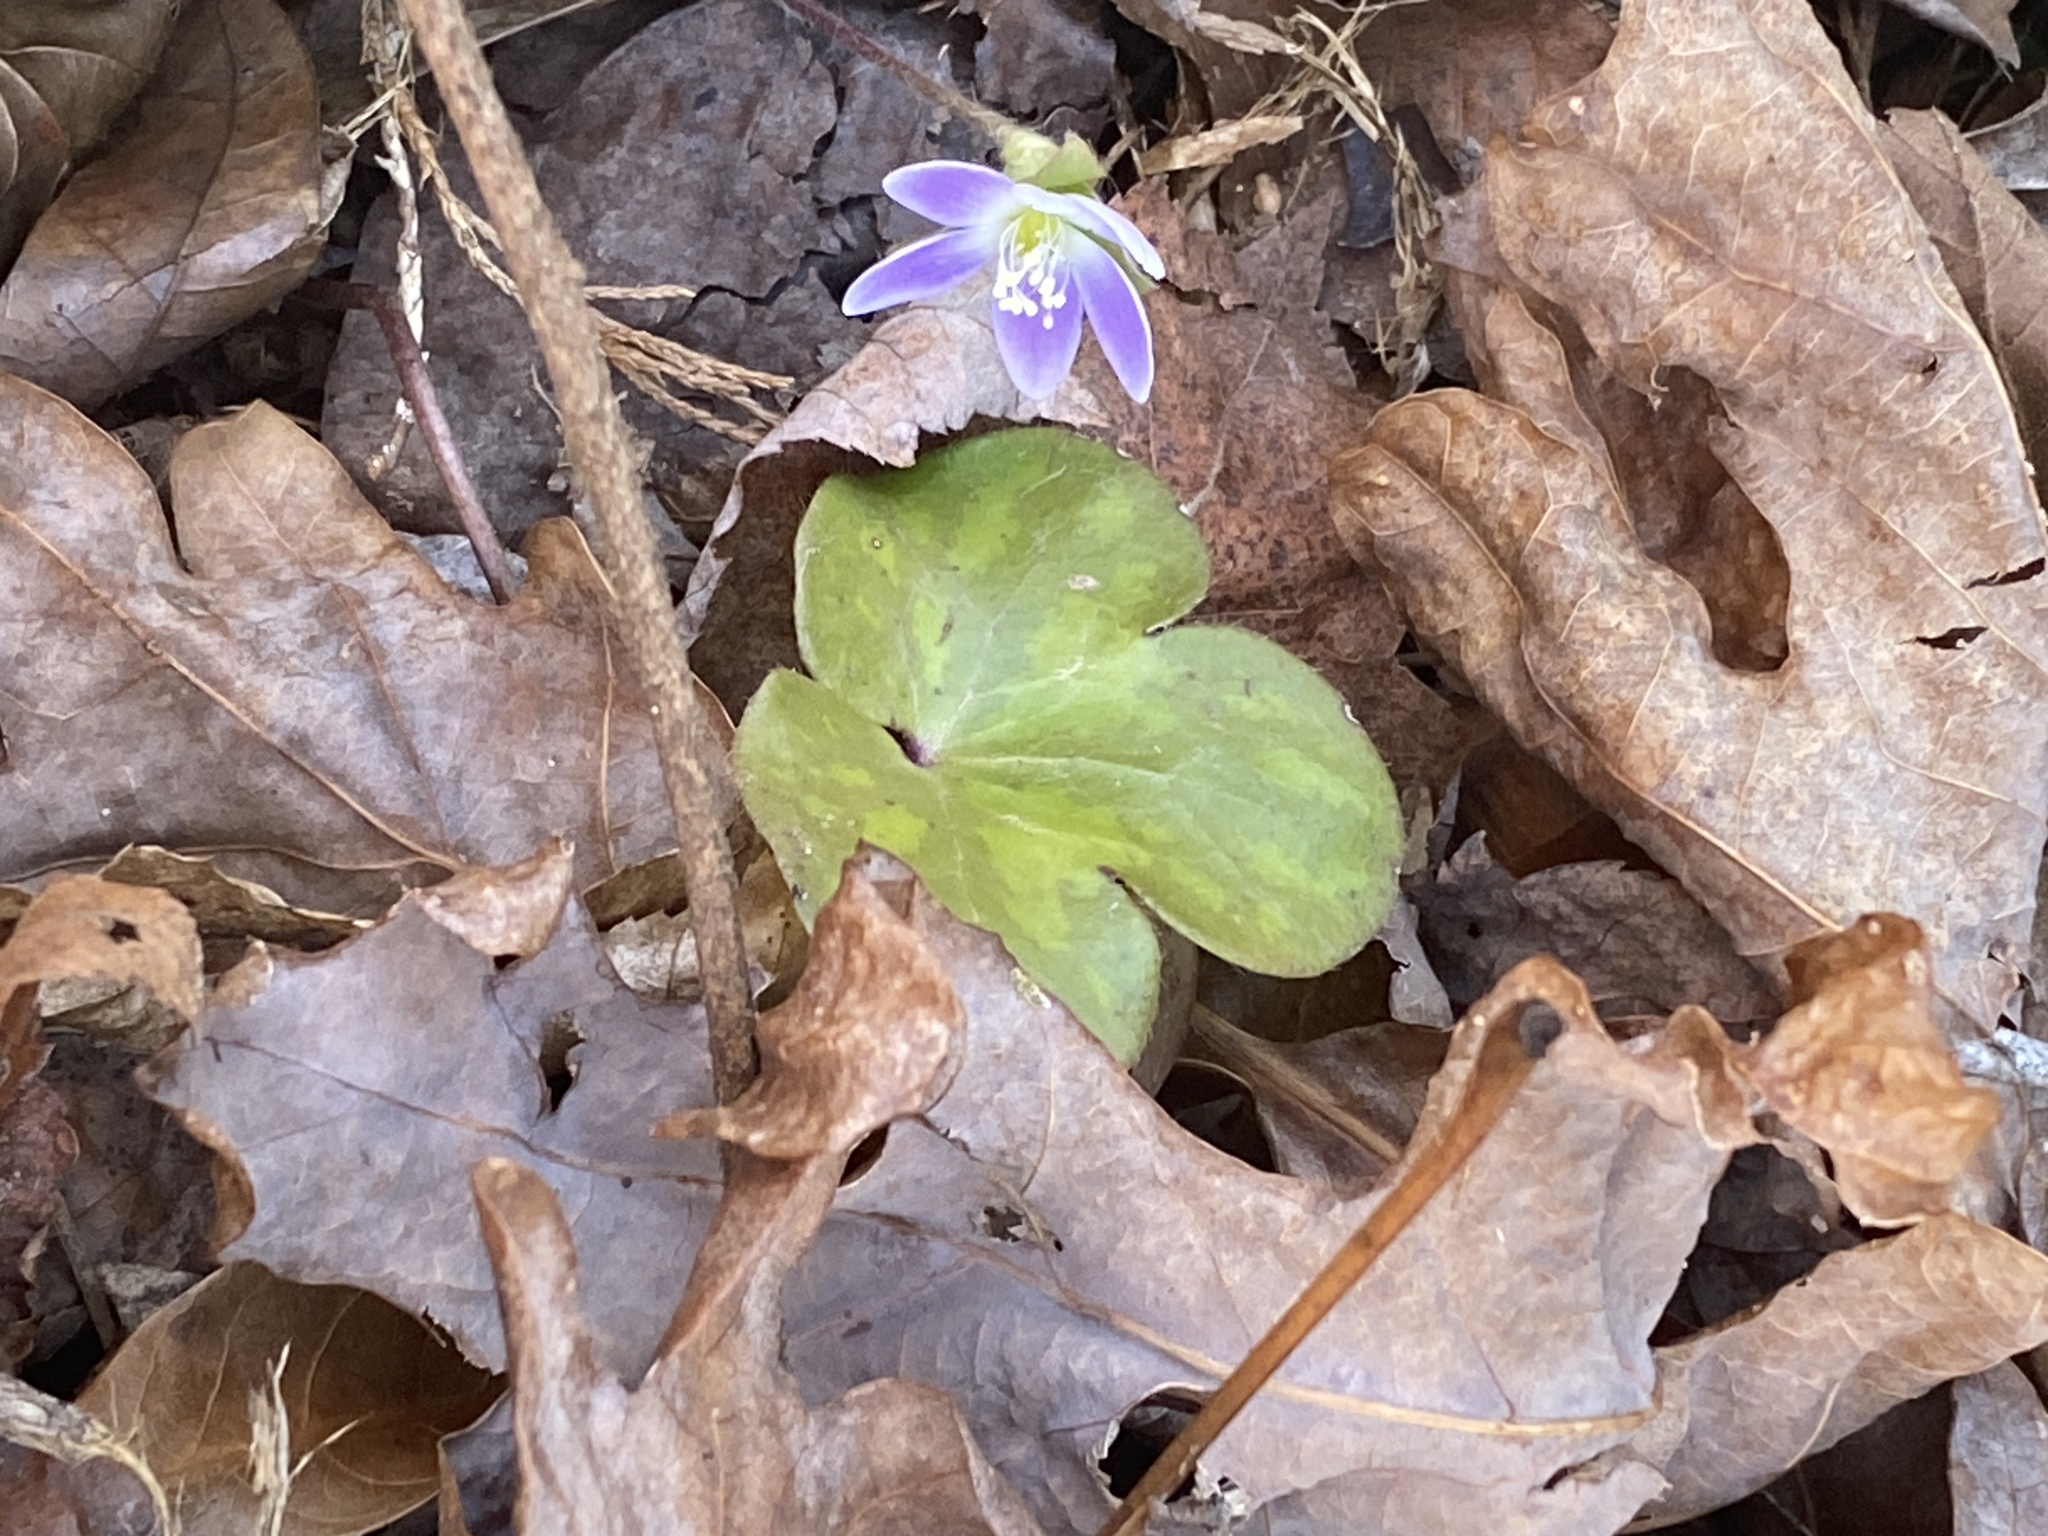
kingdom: Plantae
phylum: Tracheophyta
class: Magnoliopsida
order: Ranunculales
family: Ranunculaceae
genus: Hepatica
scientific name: Hepatica americana
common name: American hepatica
